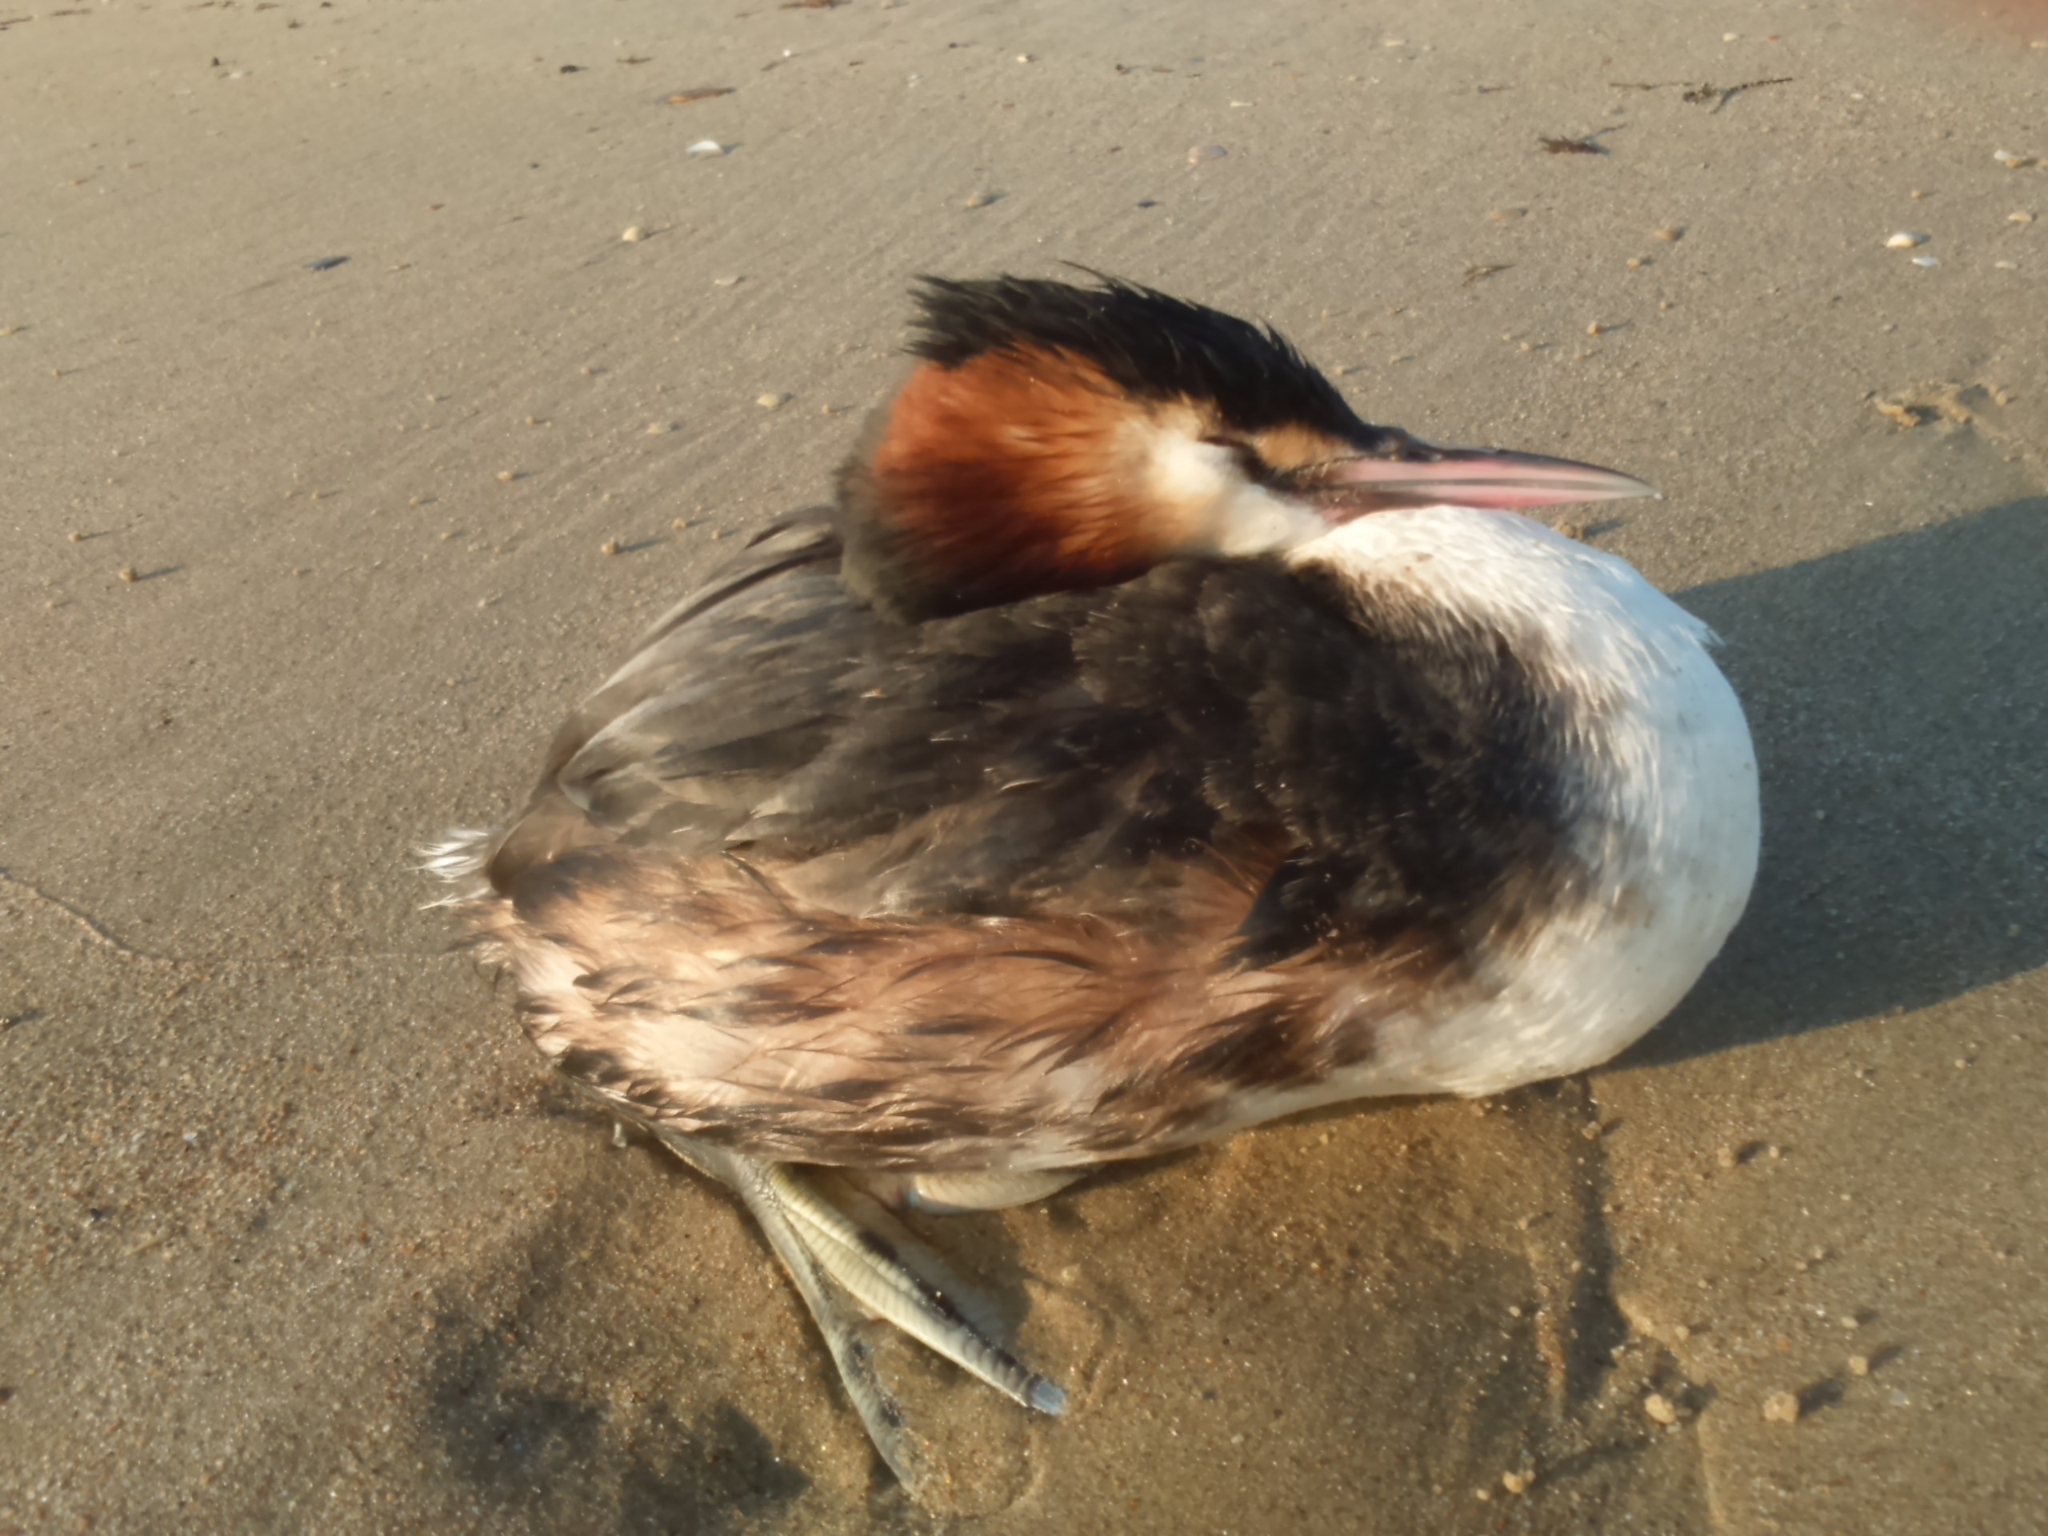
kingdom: Animalia
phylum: Chordata
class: Aves
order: Podicipediformes
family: Podicipedidae
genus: Podiceps
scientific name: Podiceps cristatus
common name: Great crested grebe
